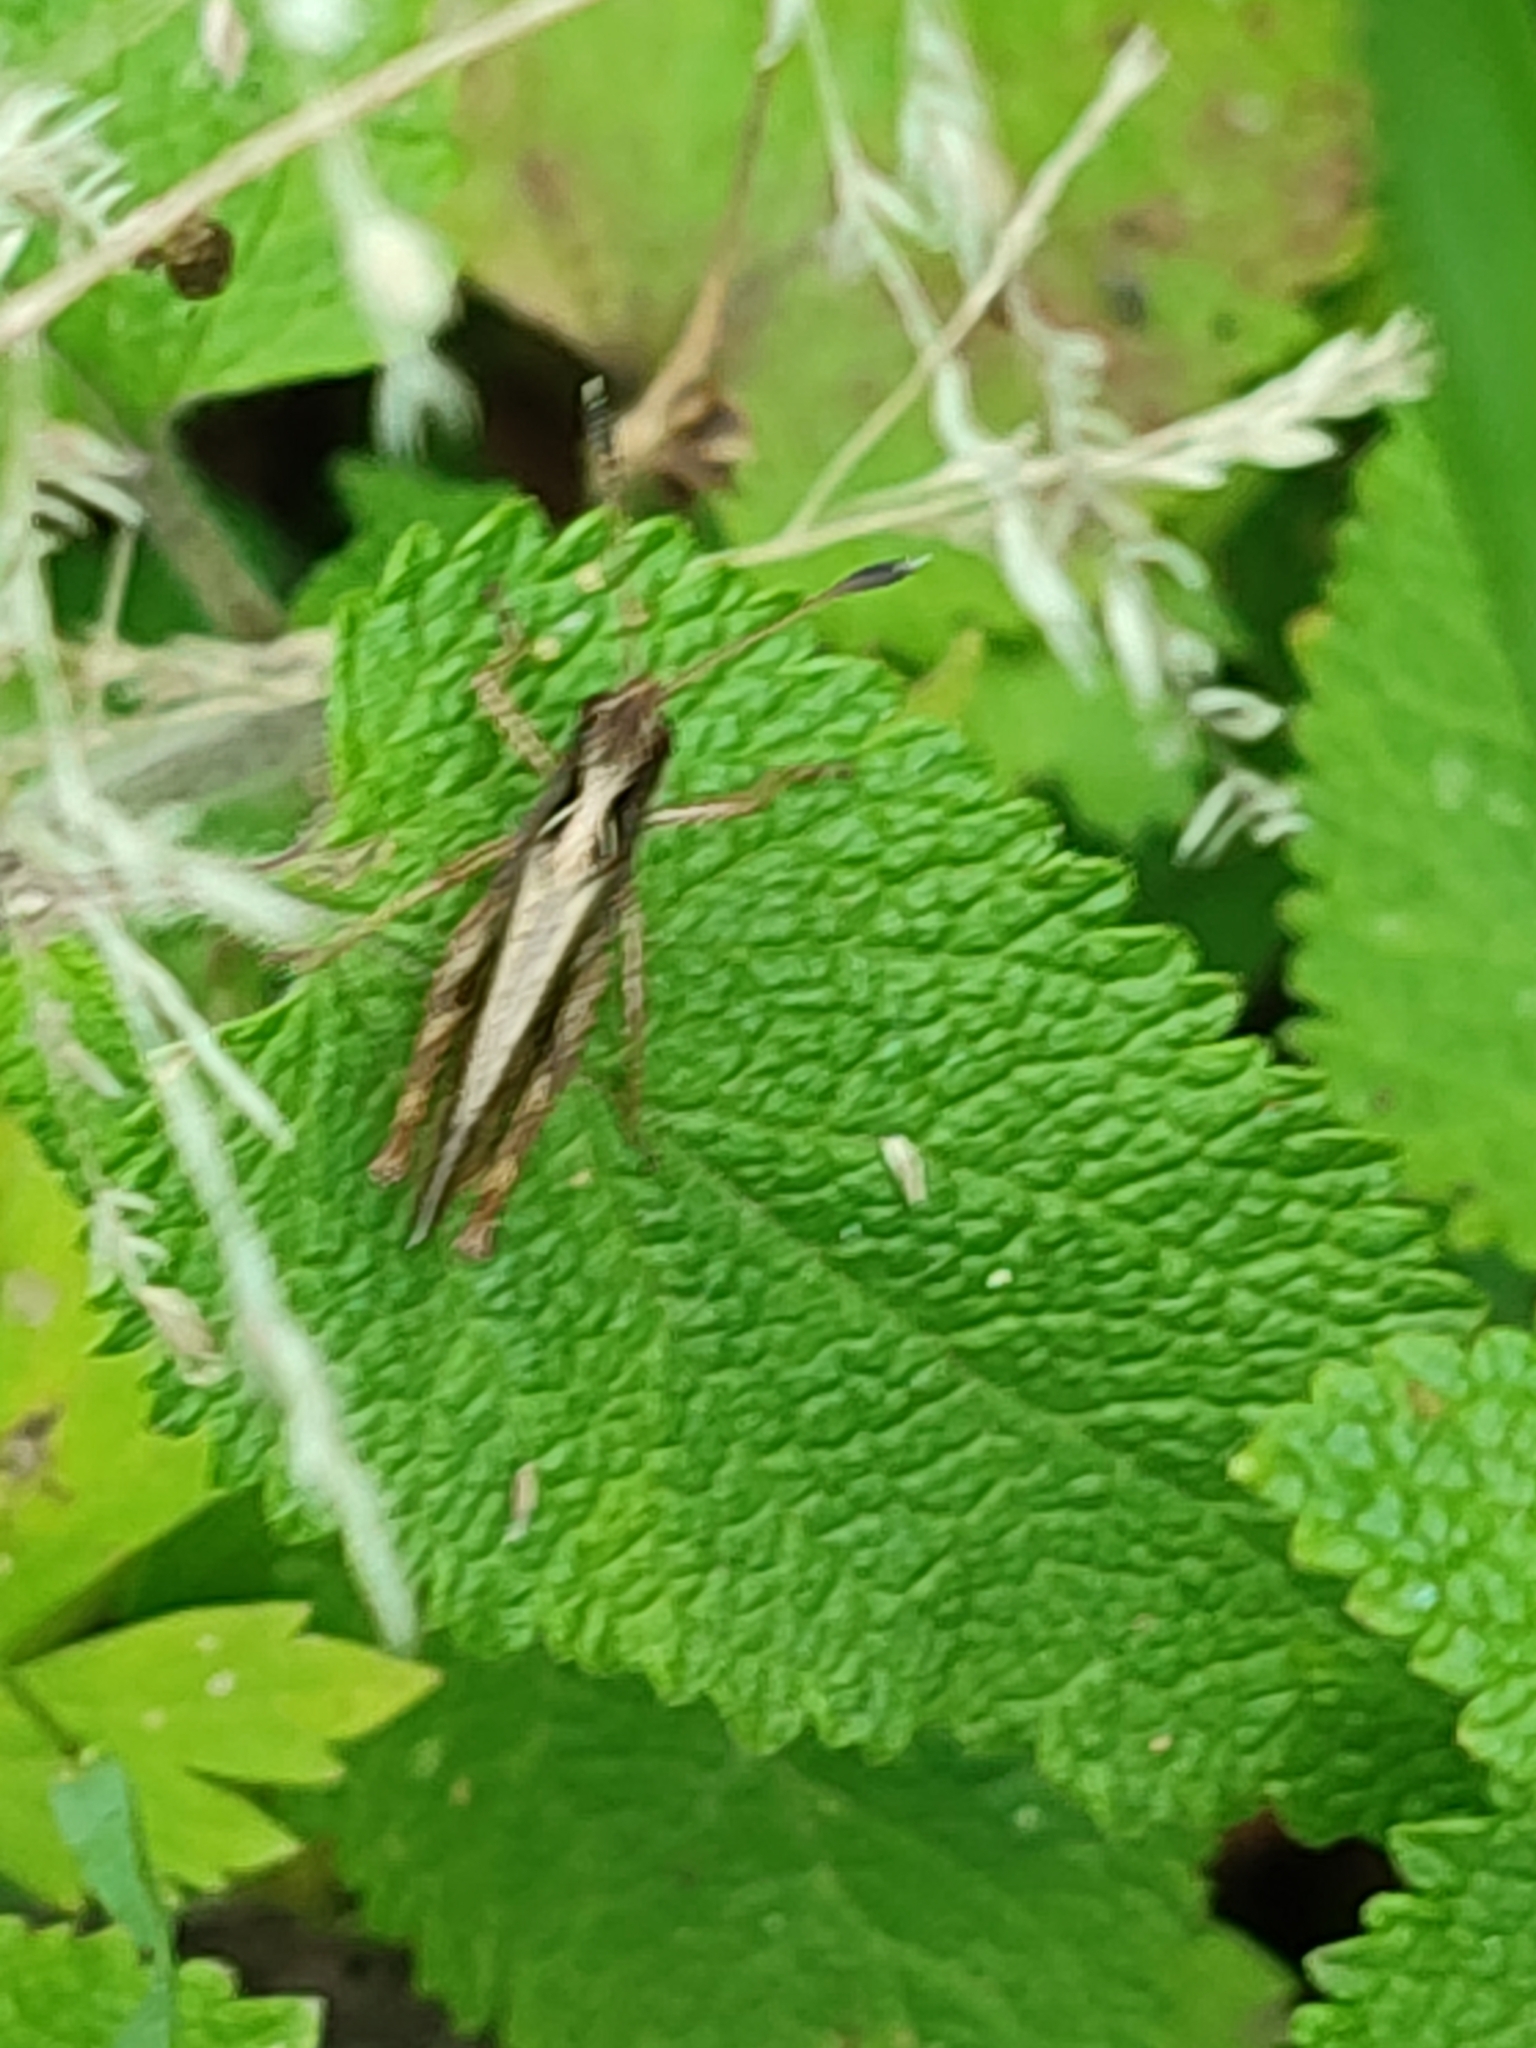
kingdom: Animalia
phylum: Arthropoda
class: Insecta
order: Orthoptera
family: Acrididae
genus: Gomphocerippus
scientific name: Gomphocerippus rufus
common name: Rufous grasshopper
